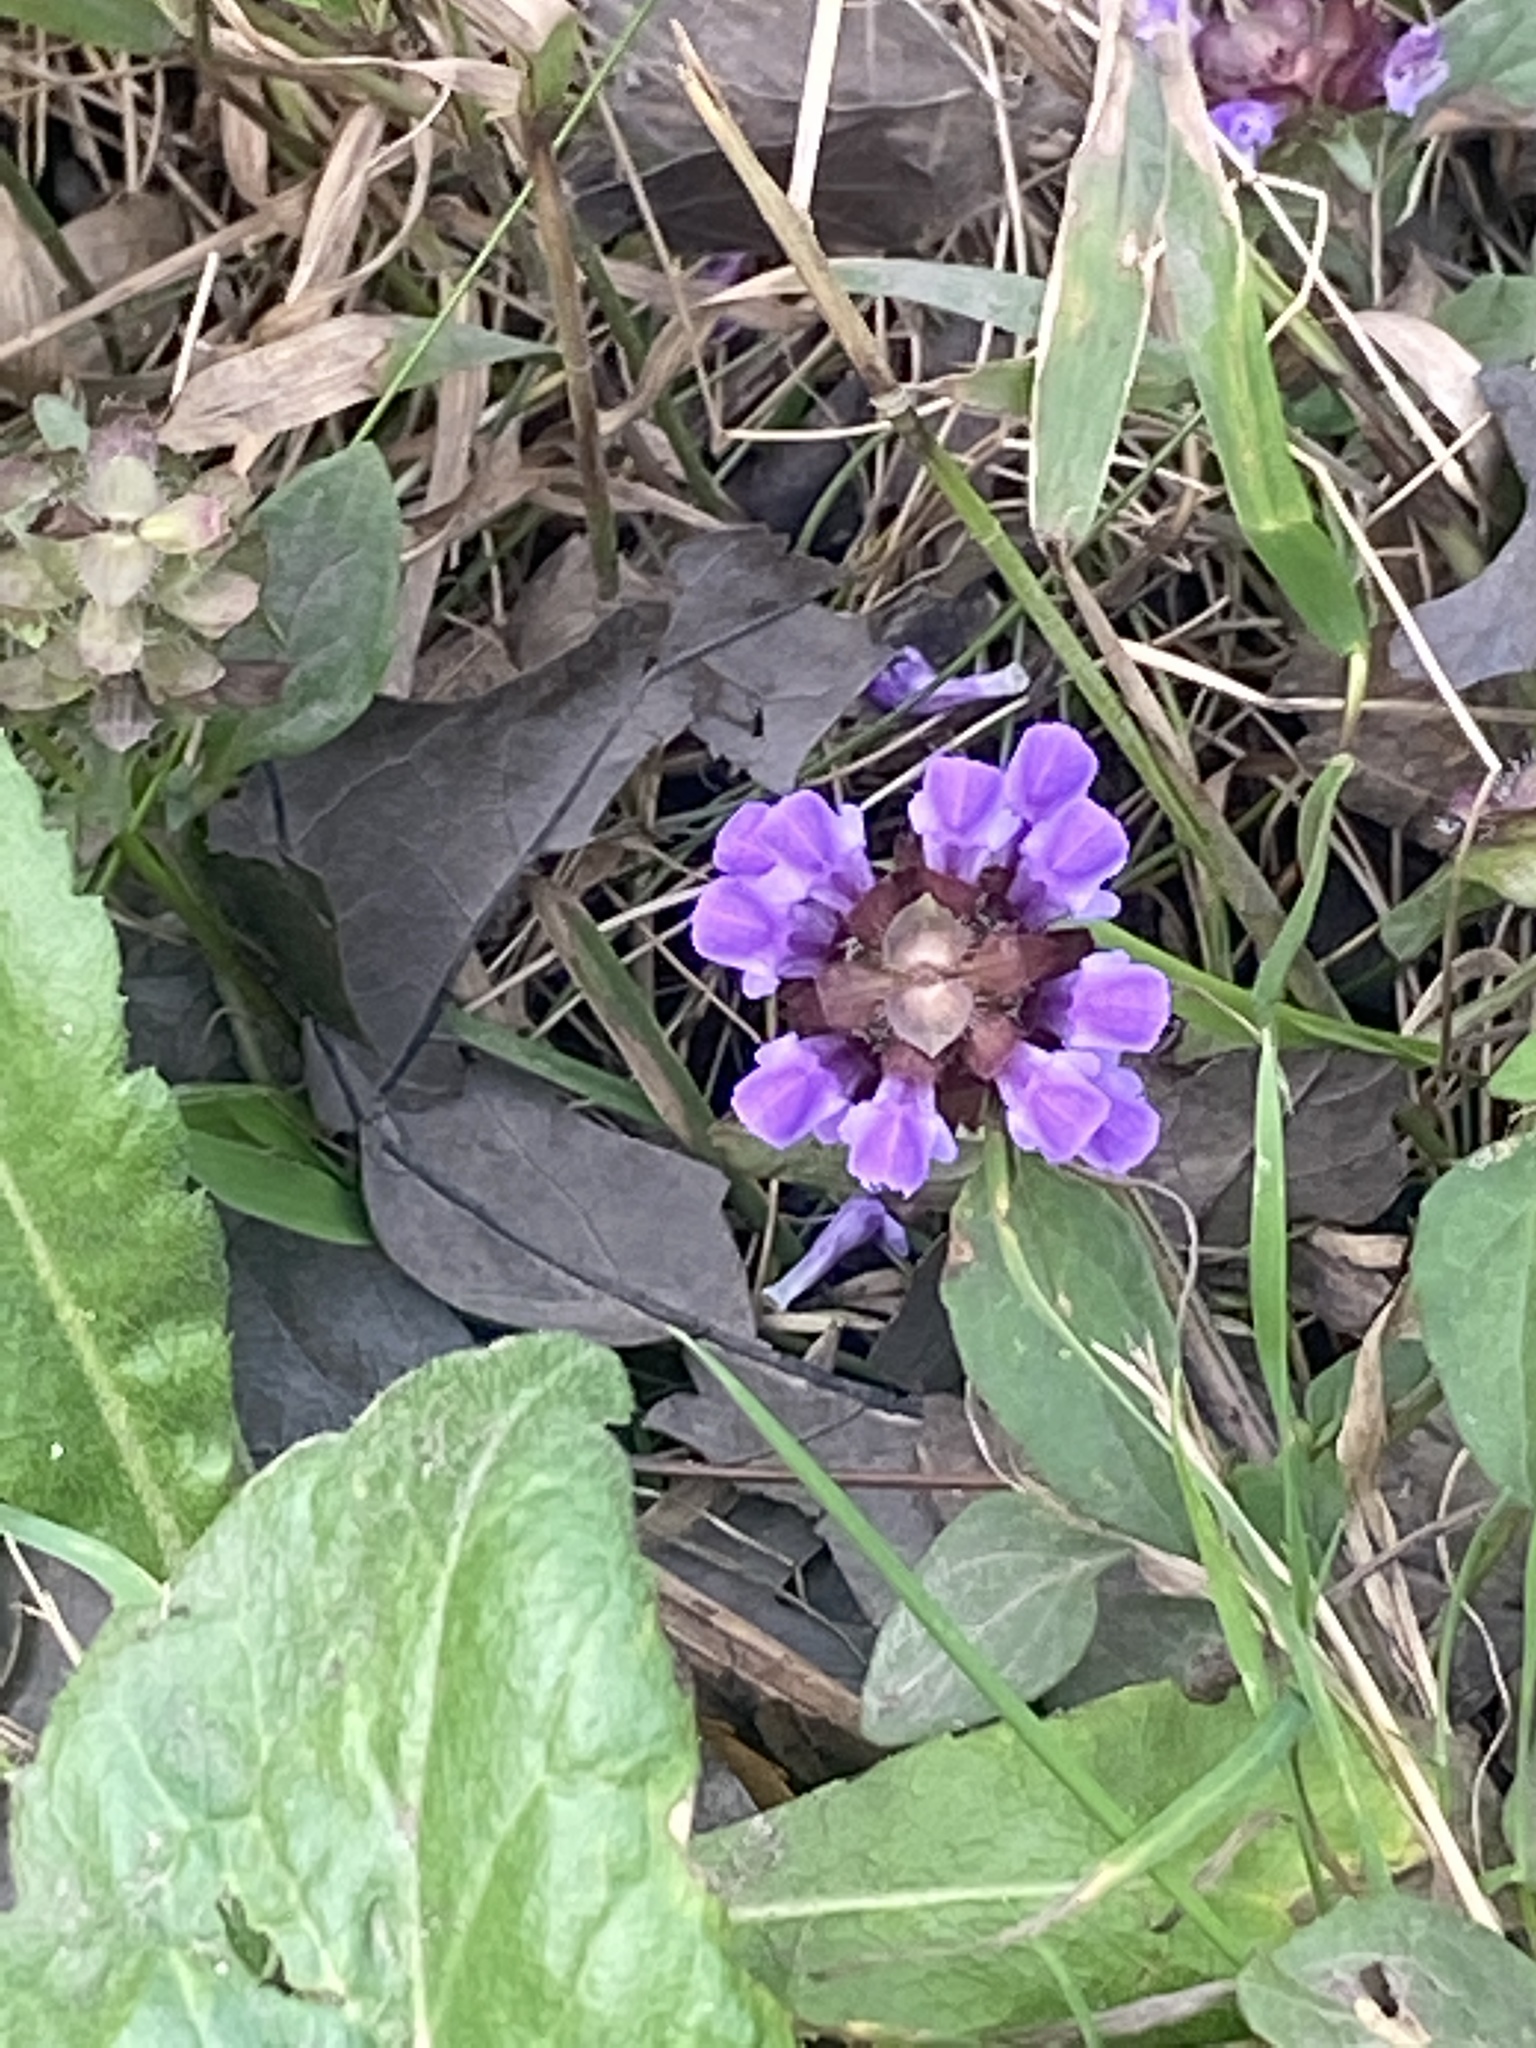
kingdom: Plantae
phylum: Tracheophyta
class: Magnoliopsida
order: Lamiales
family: Lamiaceae
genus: Prunella
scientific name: Prunella vulgaris
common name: Heal-all
